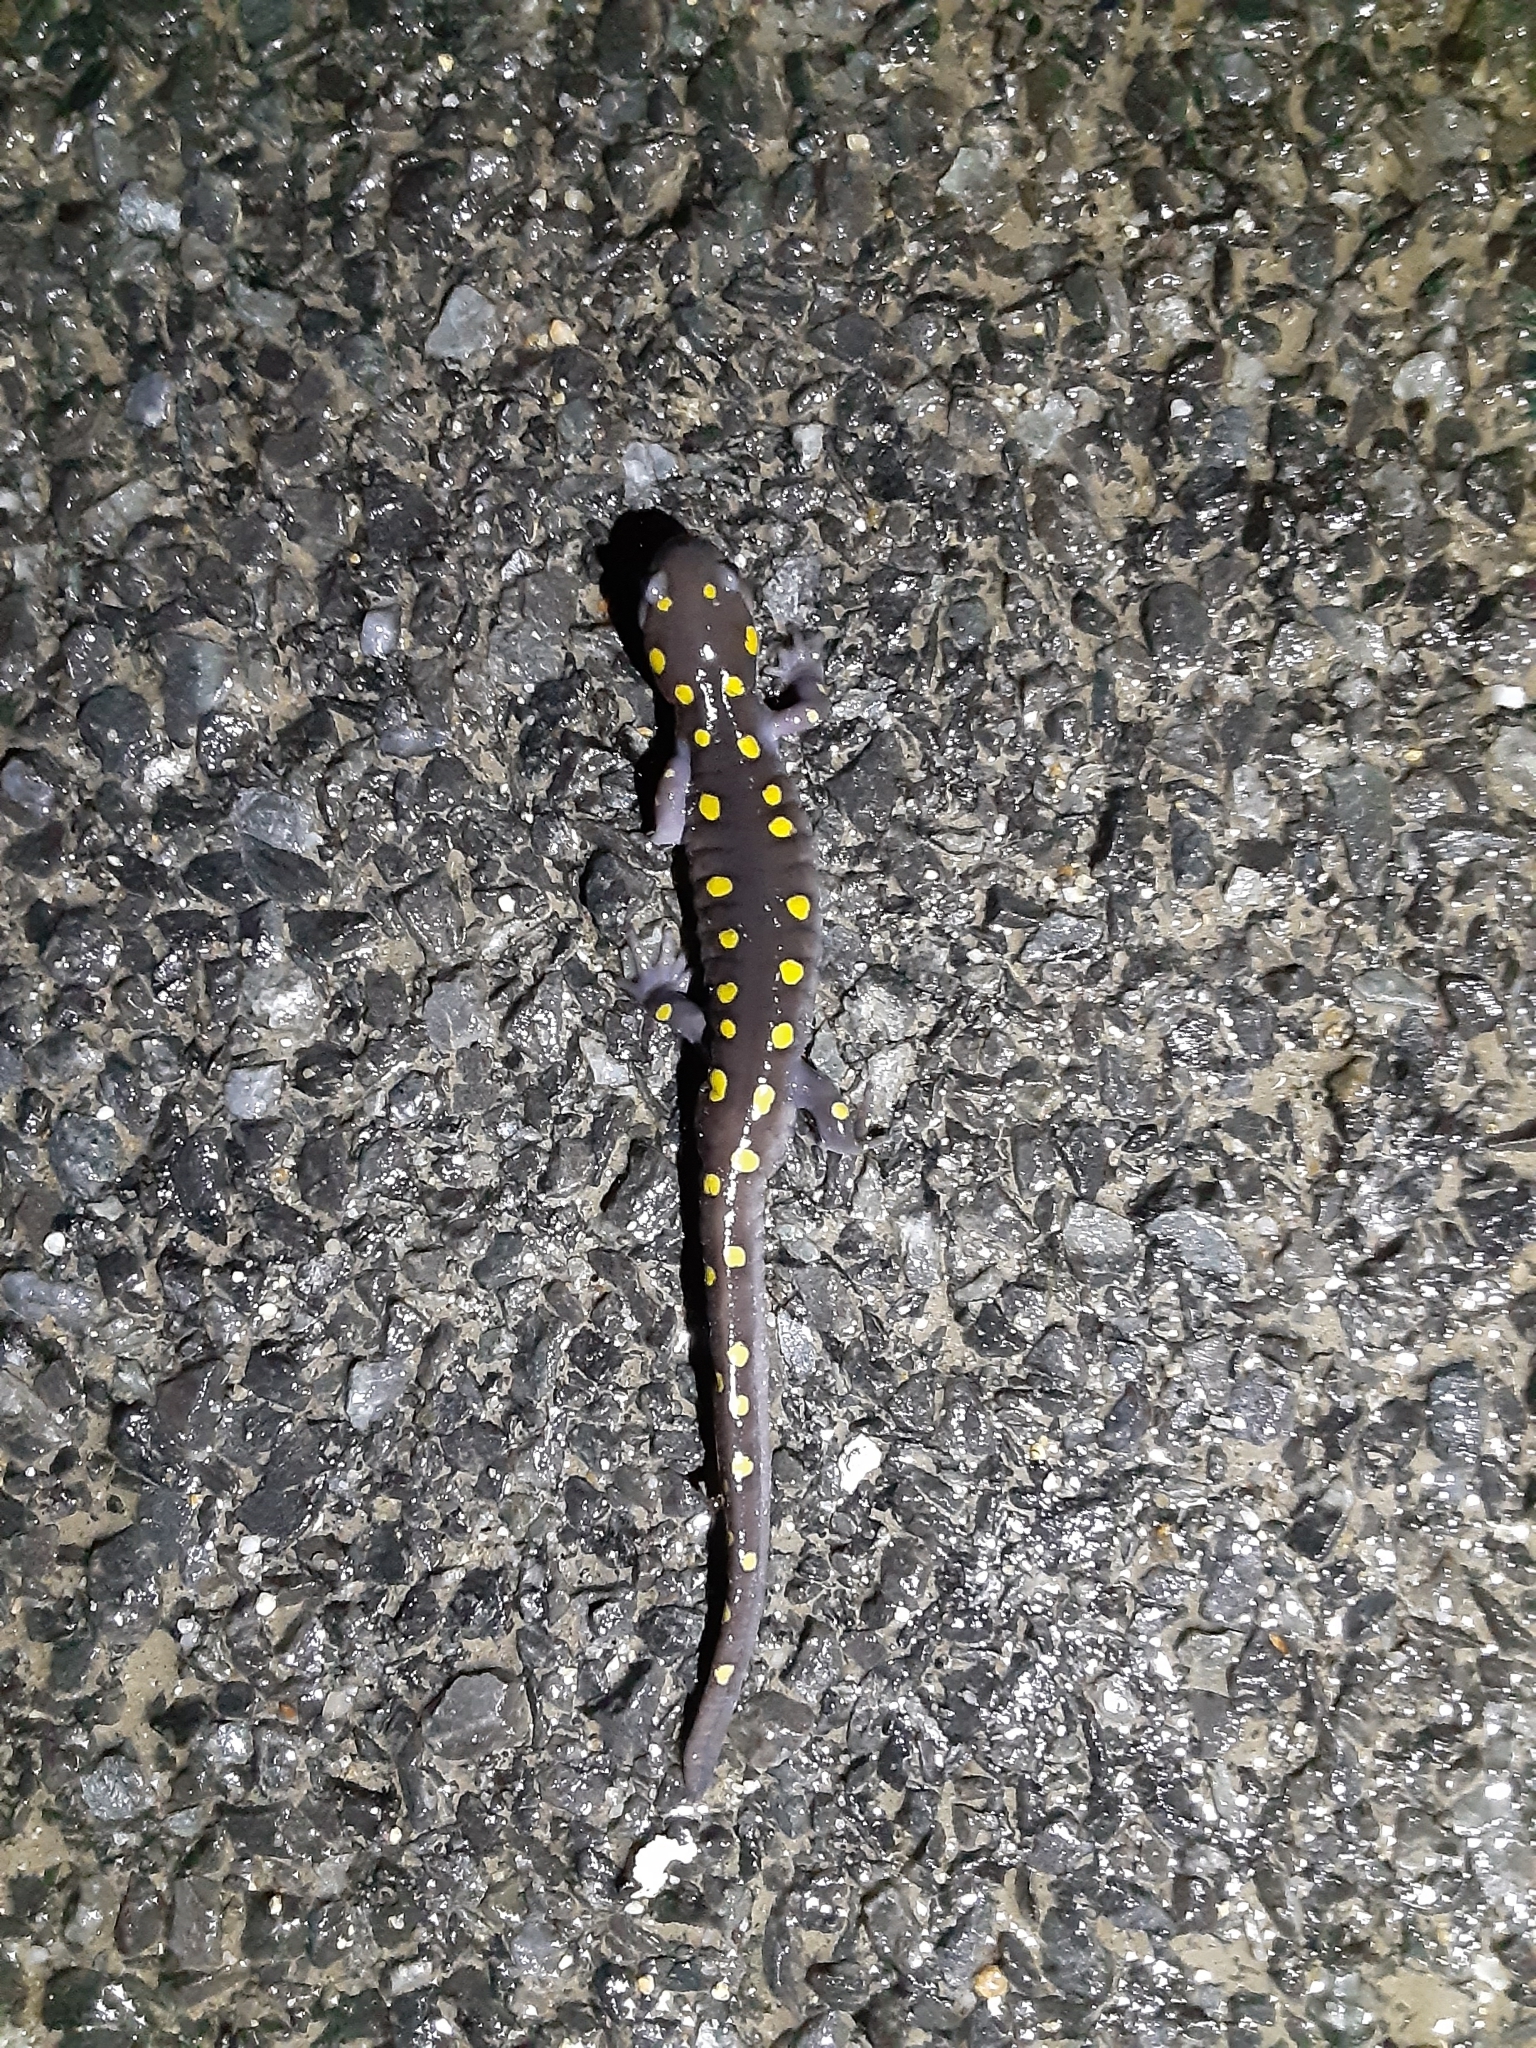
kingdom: Animalia
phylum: Chordata
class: Amphibia
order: Caudata
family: Ambystomatidae
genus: Ambystoma
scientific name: Ambystoma maculatum
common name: Spotted salamander
